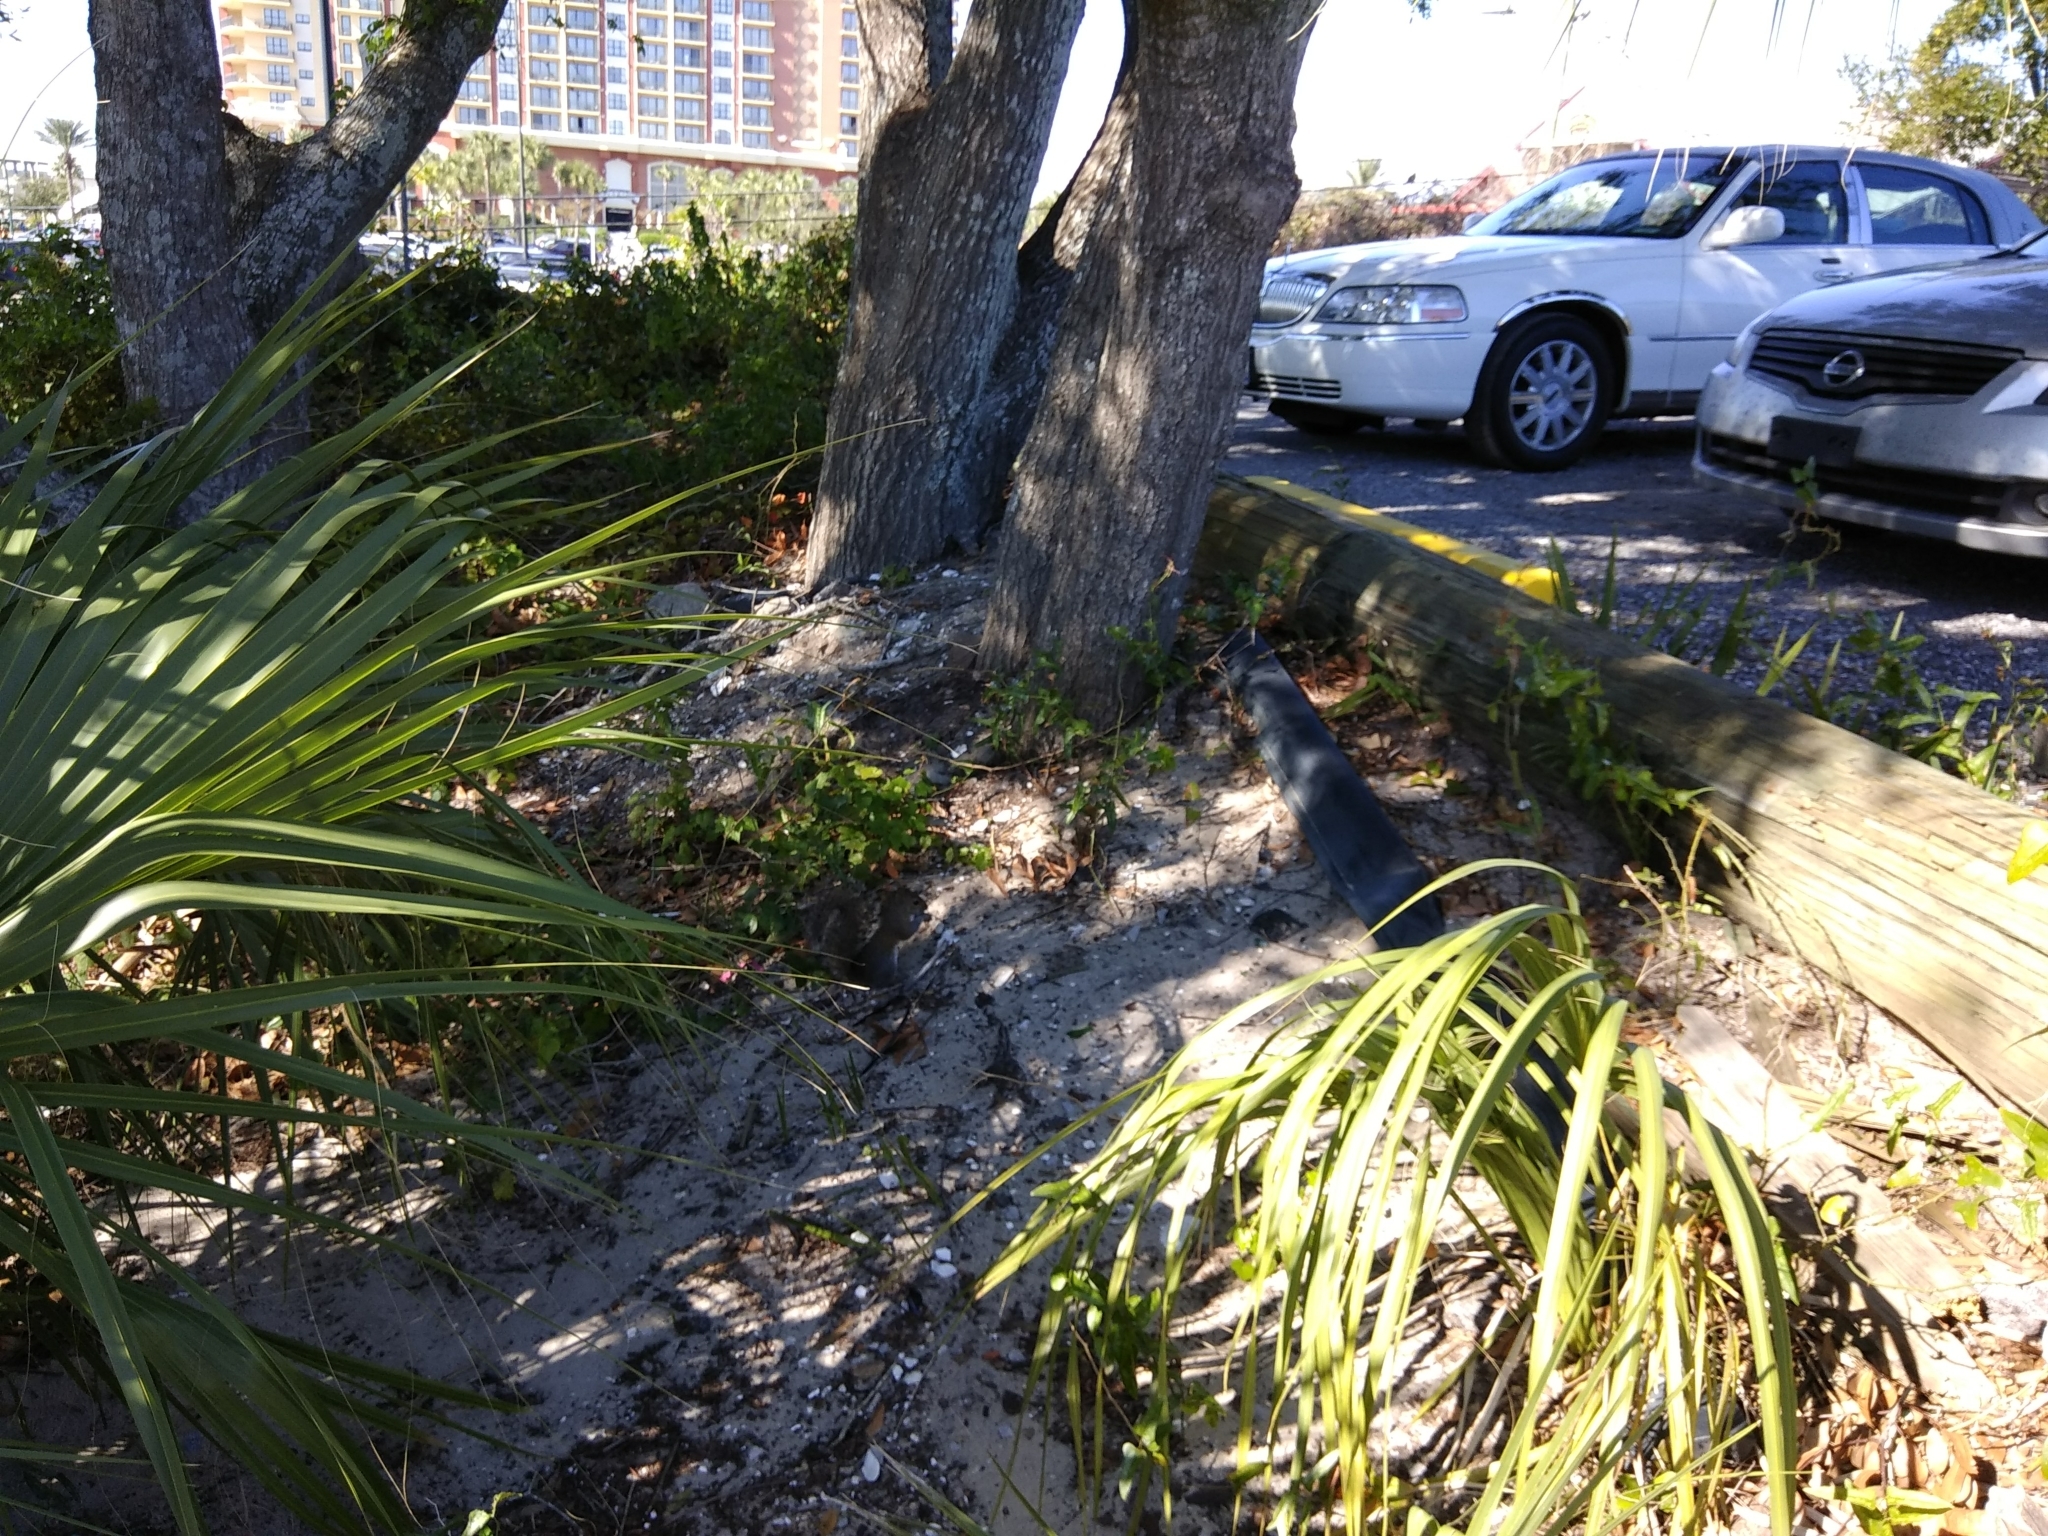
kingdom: Animalia
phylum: Chordata
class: Mammalia
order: Rodentia
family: Sciuridae
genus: Sciurus
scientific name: Sciurus carolinensis
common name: Eastern gray squirrel
